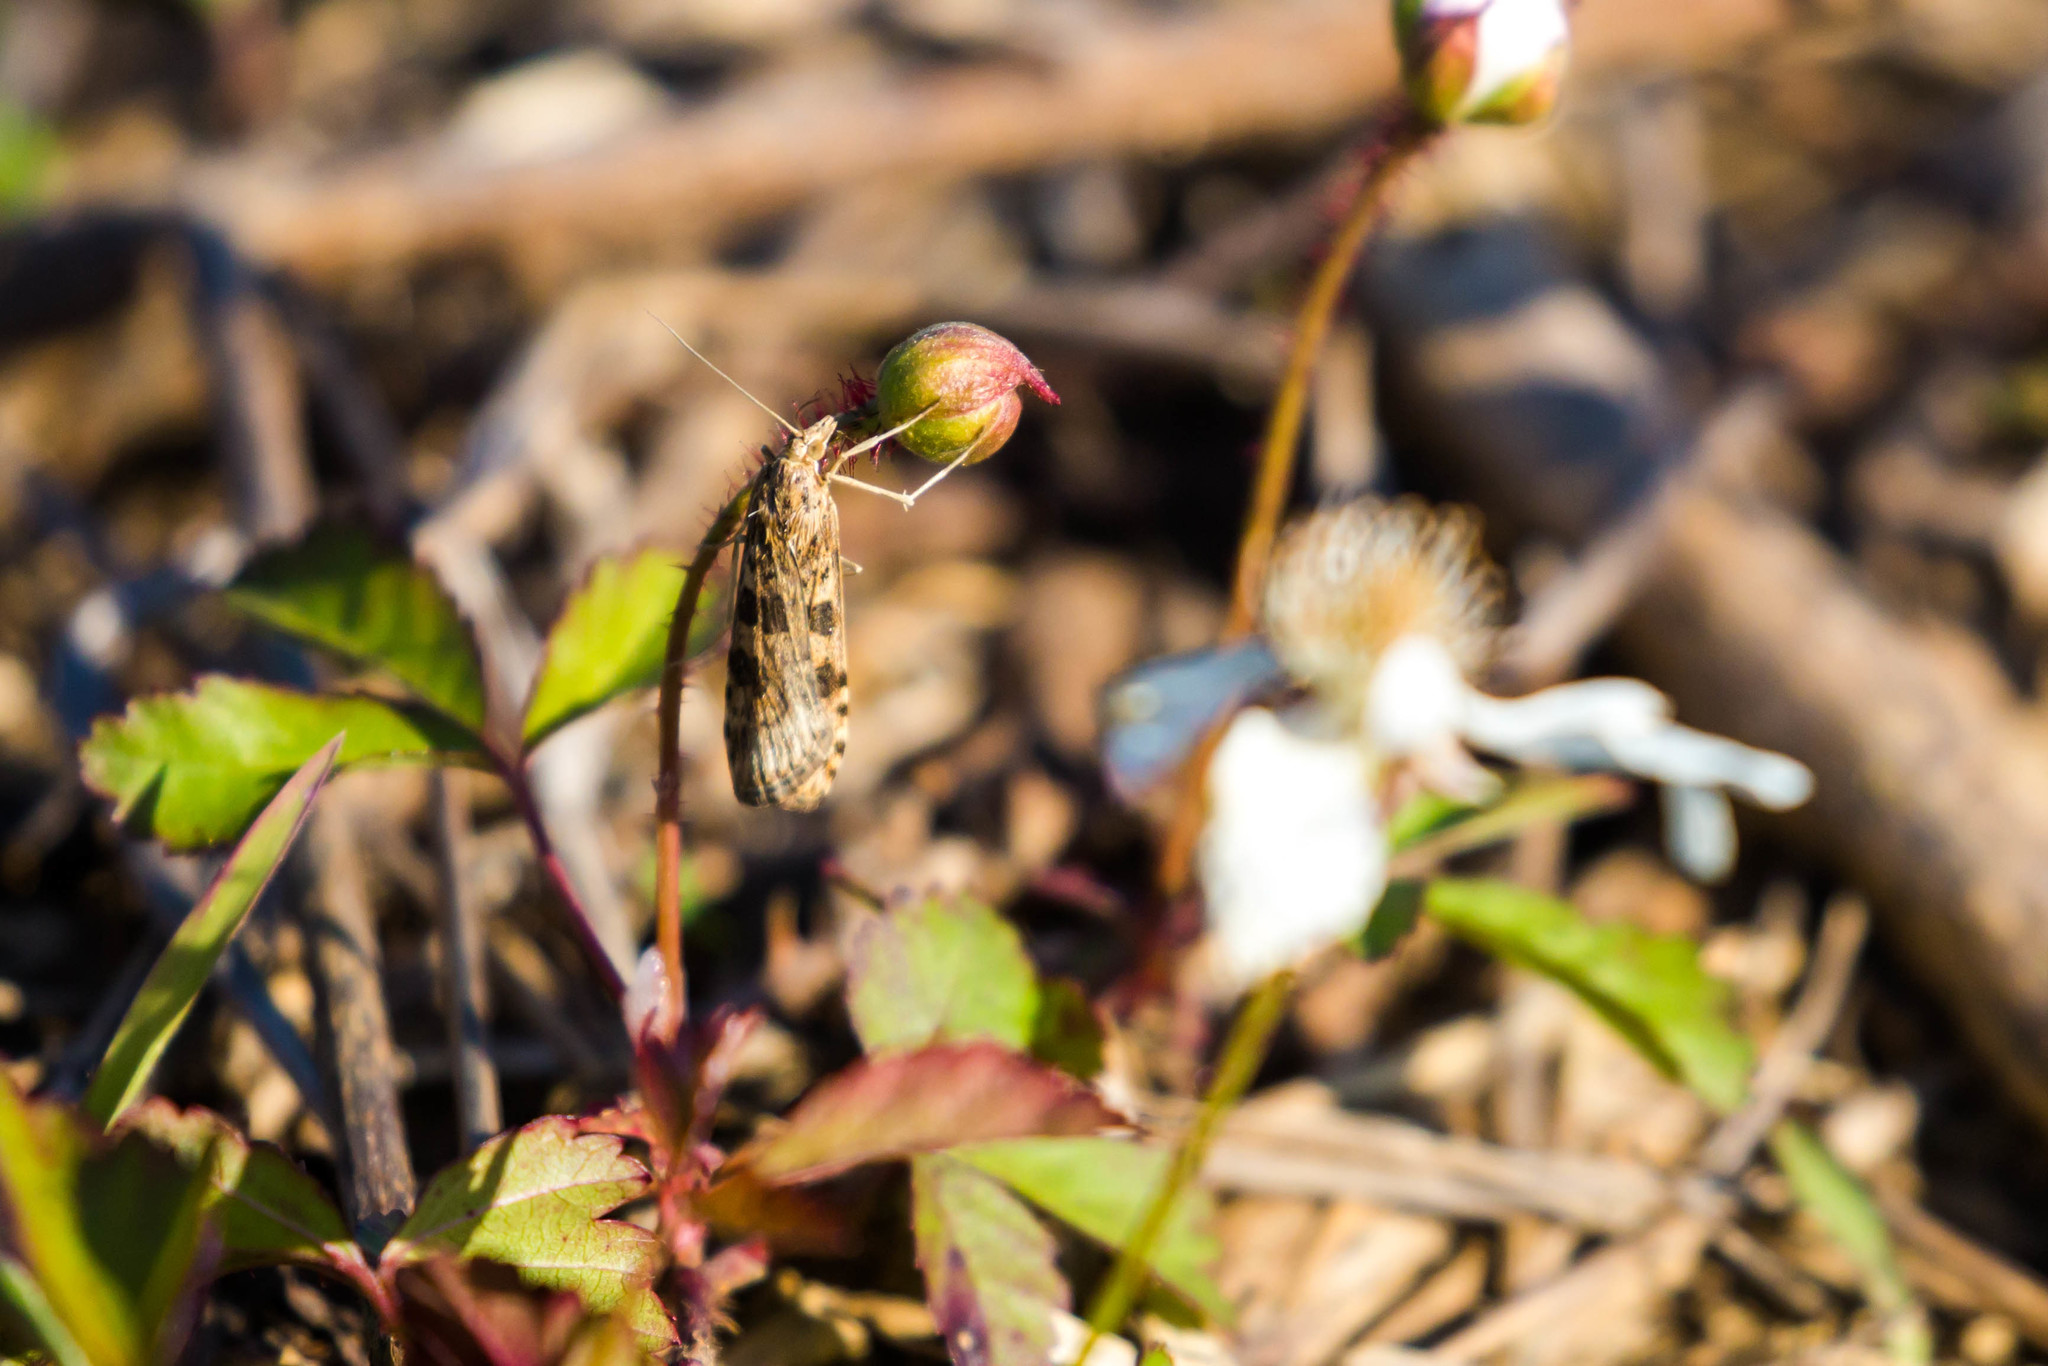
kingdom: Animalia
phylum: Arthropoda
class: Insecta
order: Lepidoptera
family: Crambidae
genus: Nomophila
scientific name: Nomophila nearctica
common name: American rush veneer
